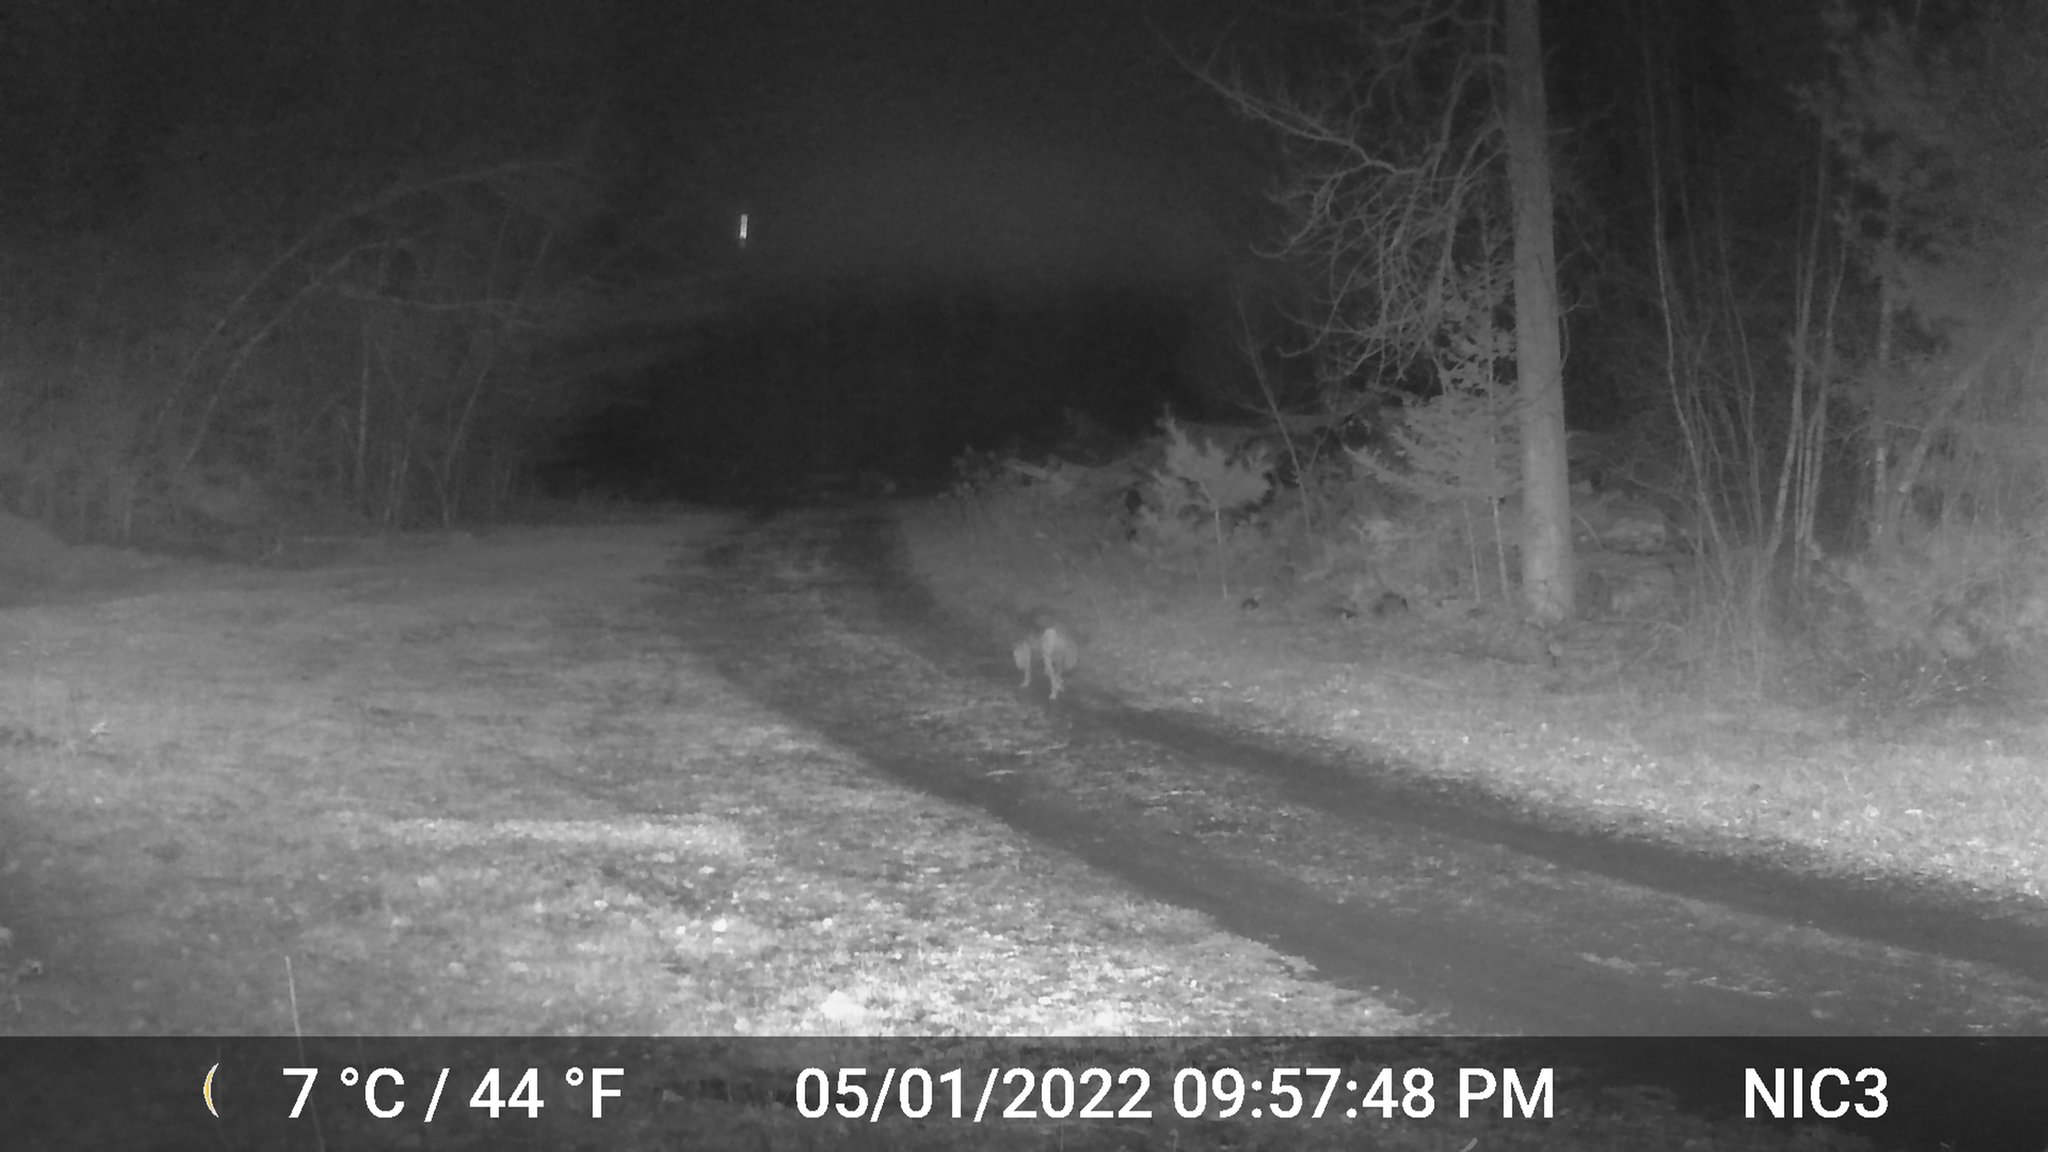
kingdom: Animalia
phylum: Chordata
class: Mammalia
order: Carnivora
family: Canidae
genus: Canis
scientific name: Canis latrans
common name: Coyote
